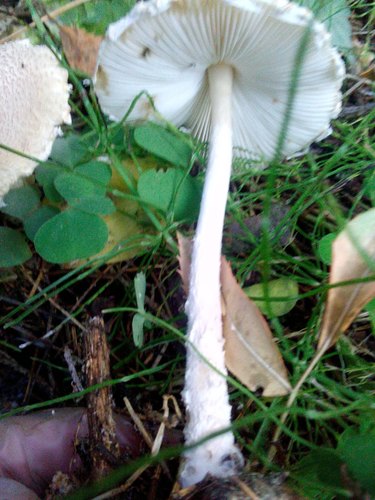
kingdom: Fungi
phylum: Basidiomycota
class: Agaricomycetes
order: Agaricales
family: Agaricaceae
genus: Lepiota
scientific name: Lepiota clypeolaria
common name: Shield dapperling
